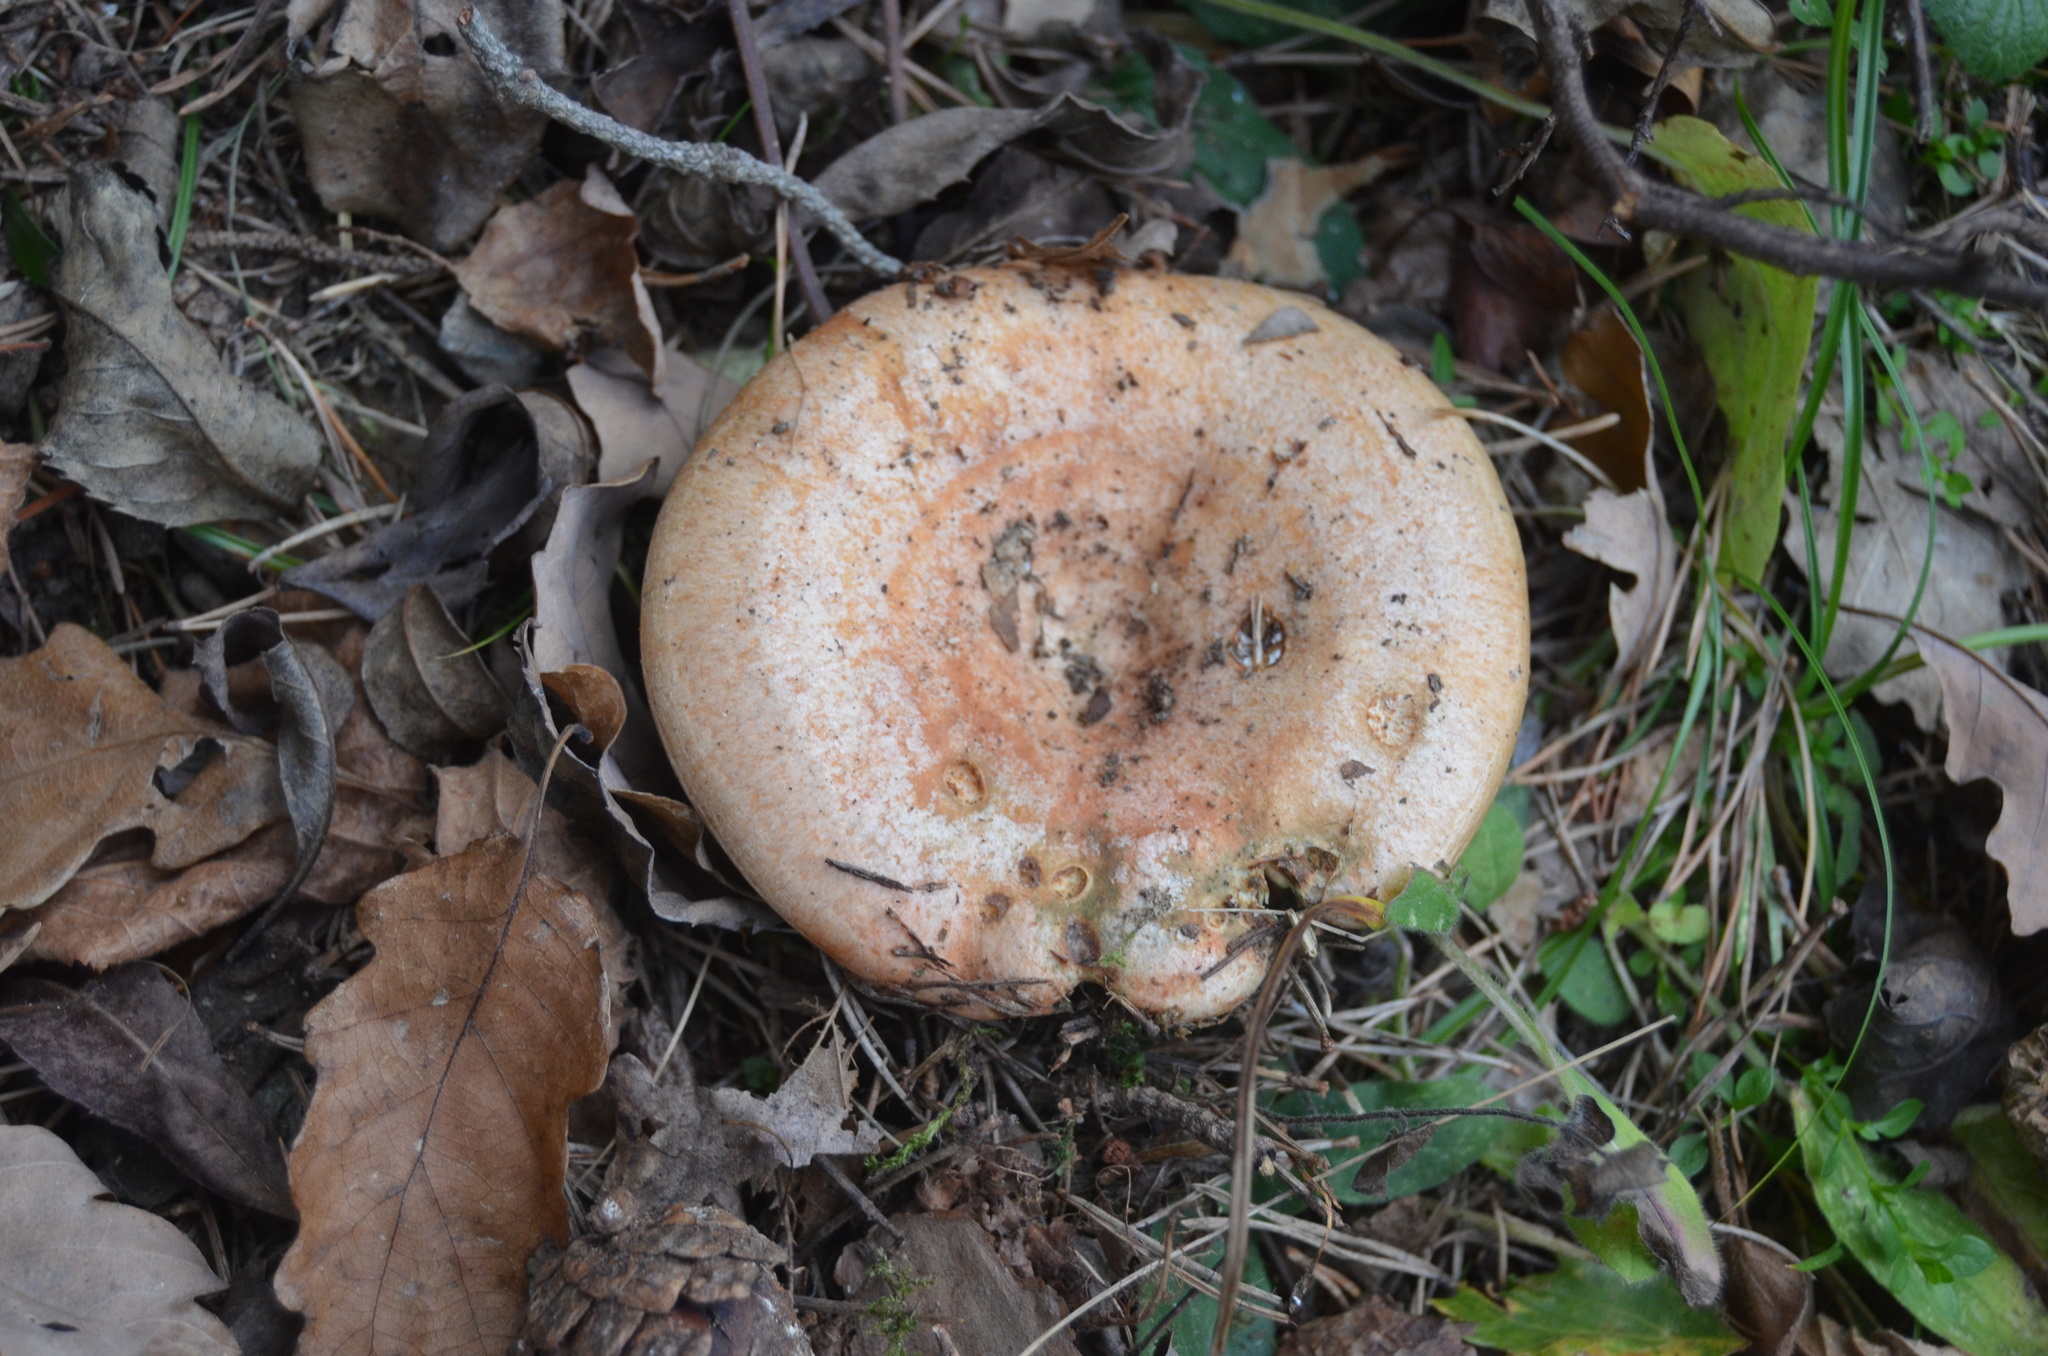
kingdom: Fungi
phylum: Basidiomycota
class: Agaricomycetes
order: Russulales
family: Russulaceae
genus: Lactarius
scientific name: Lactarius deliciosus
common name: Saffron milk-cap
